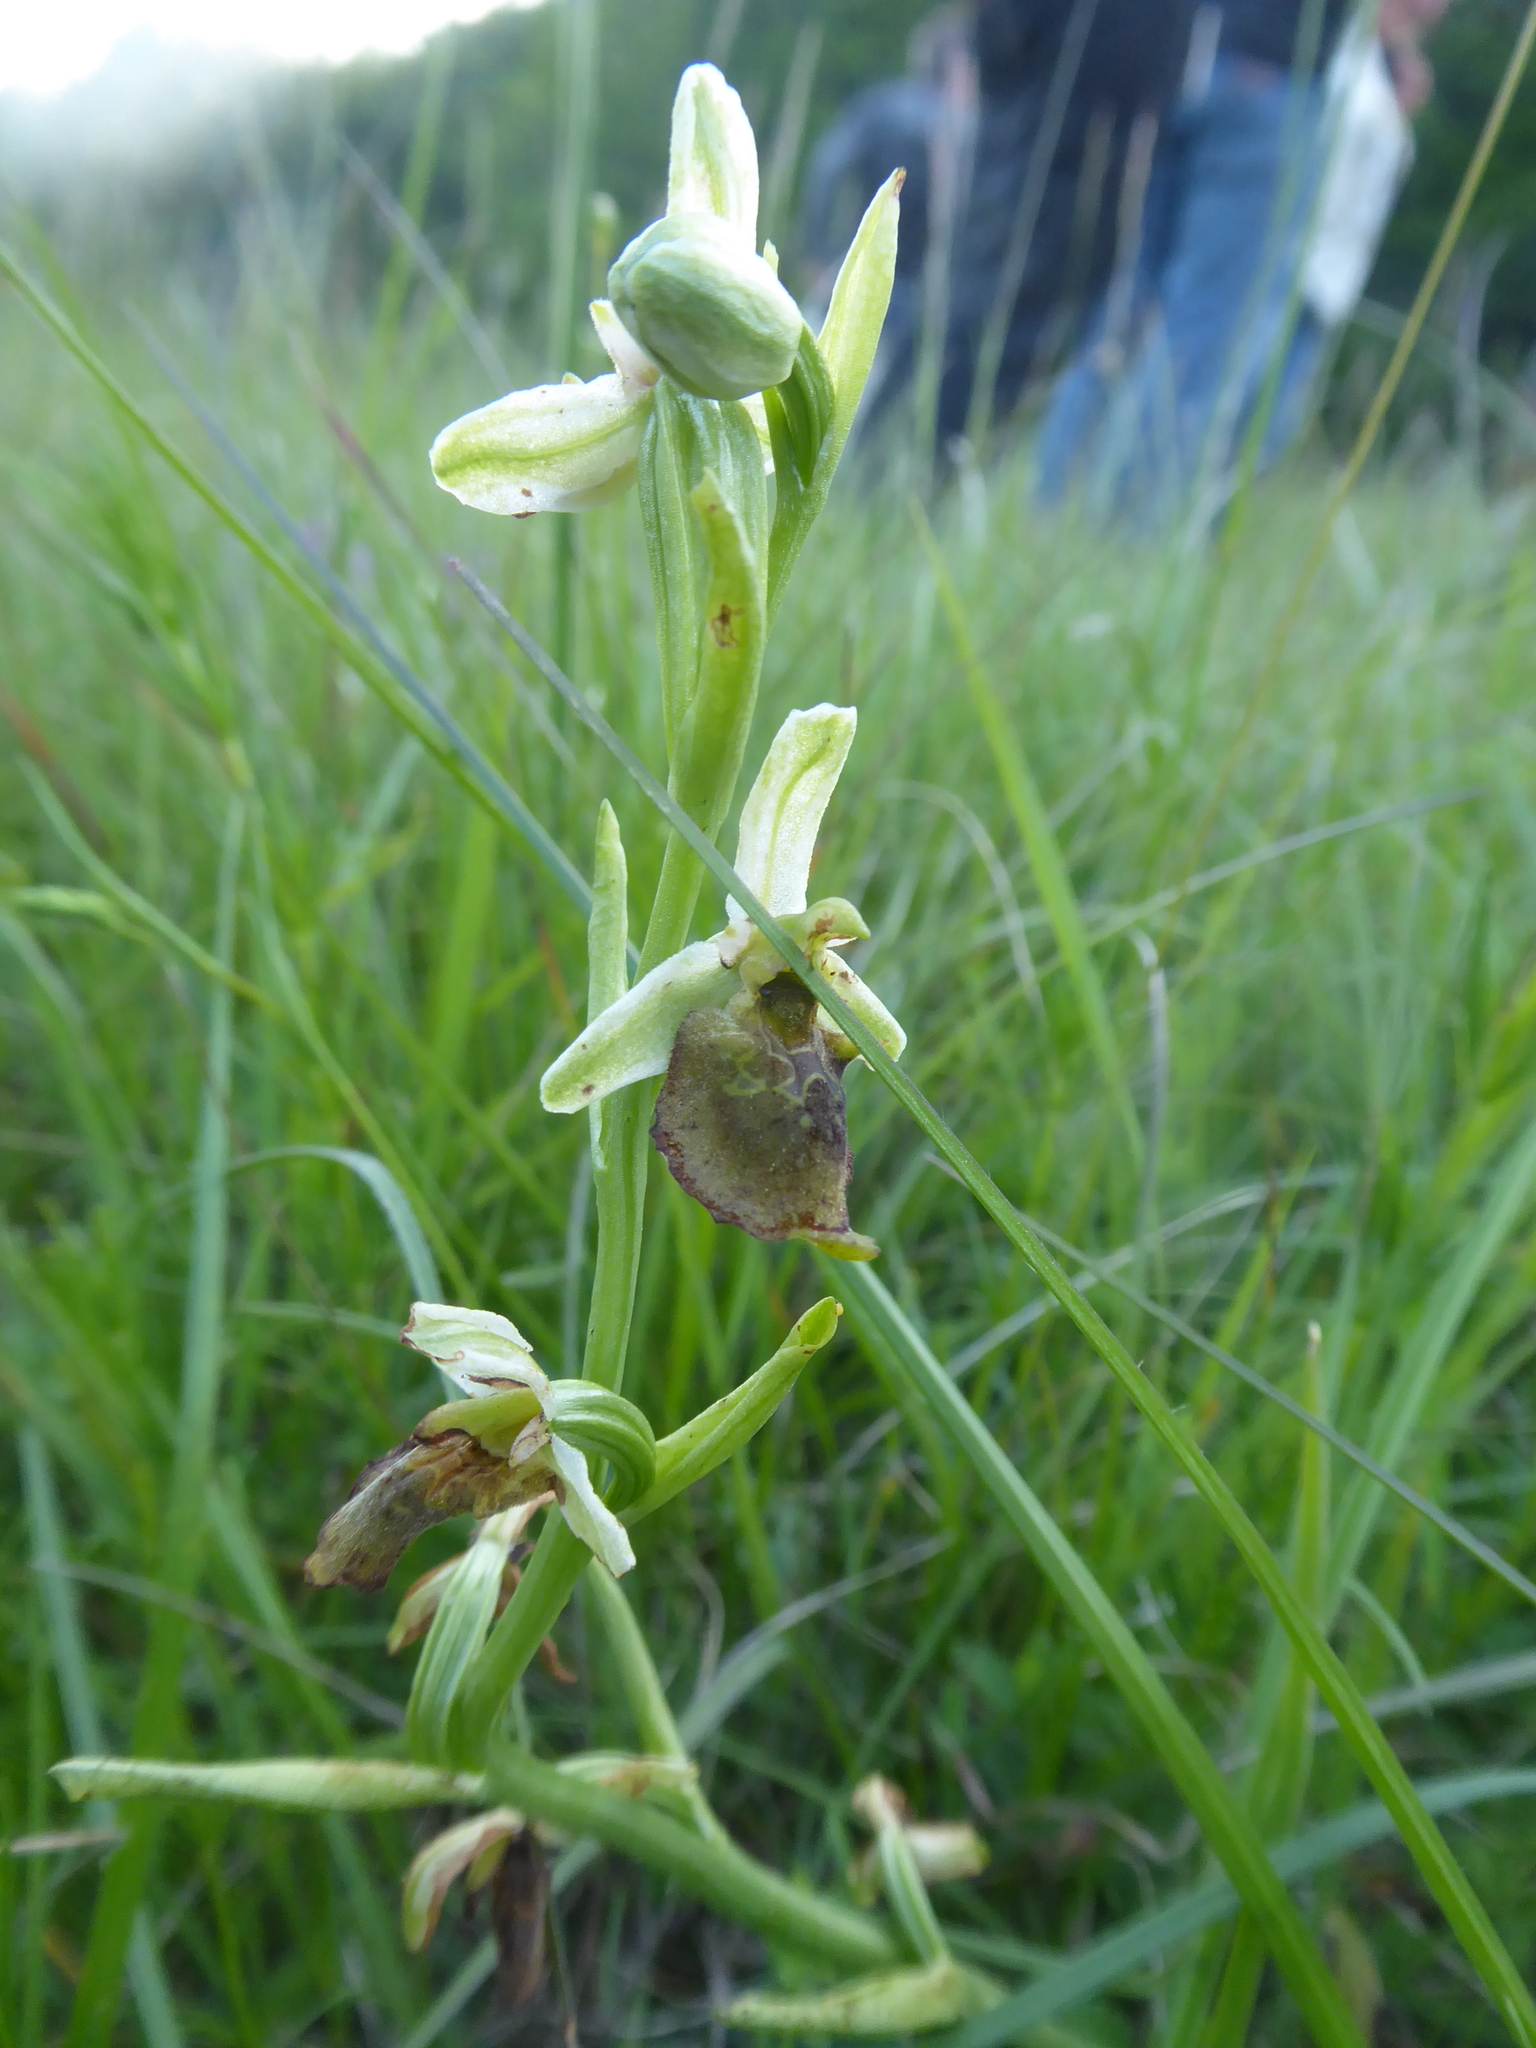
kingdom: Plantae
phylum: Tracheophyta
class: Liliopsida
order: Asparagales
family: Orchidaceae
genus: Ophrys
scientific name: Ophrys holosericea
